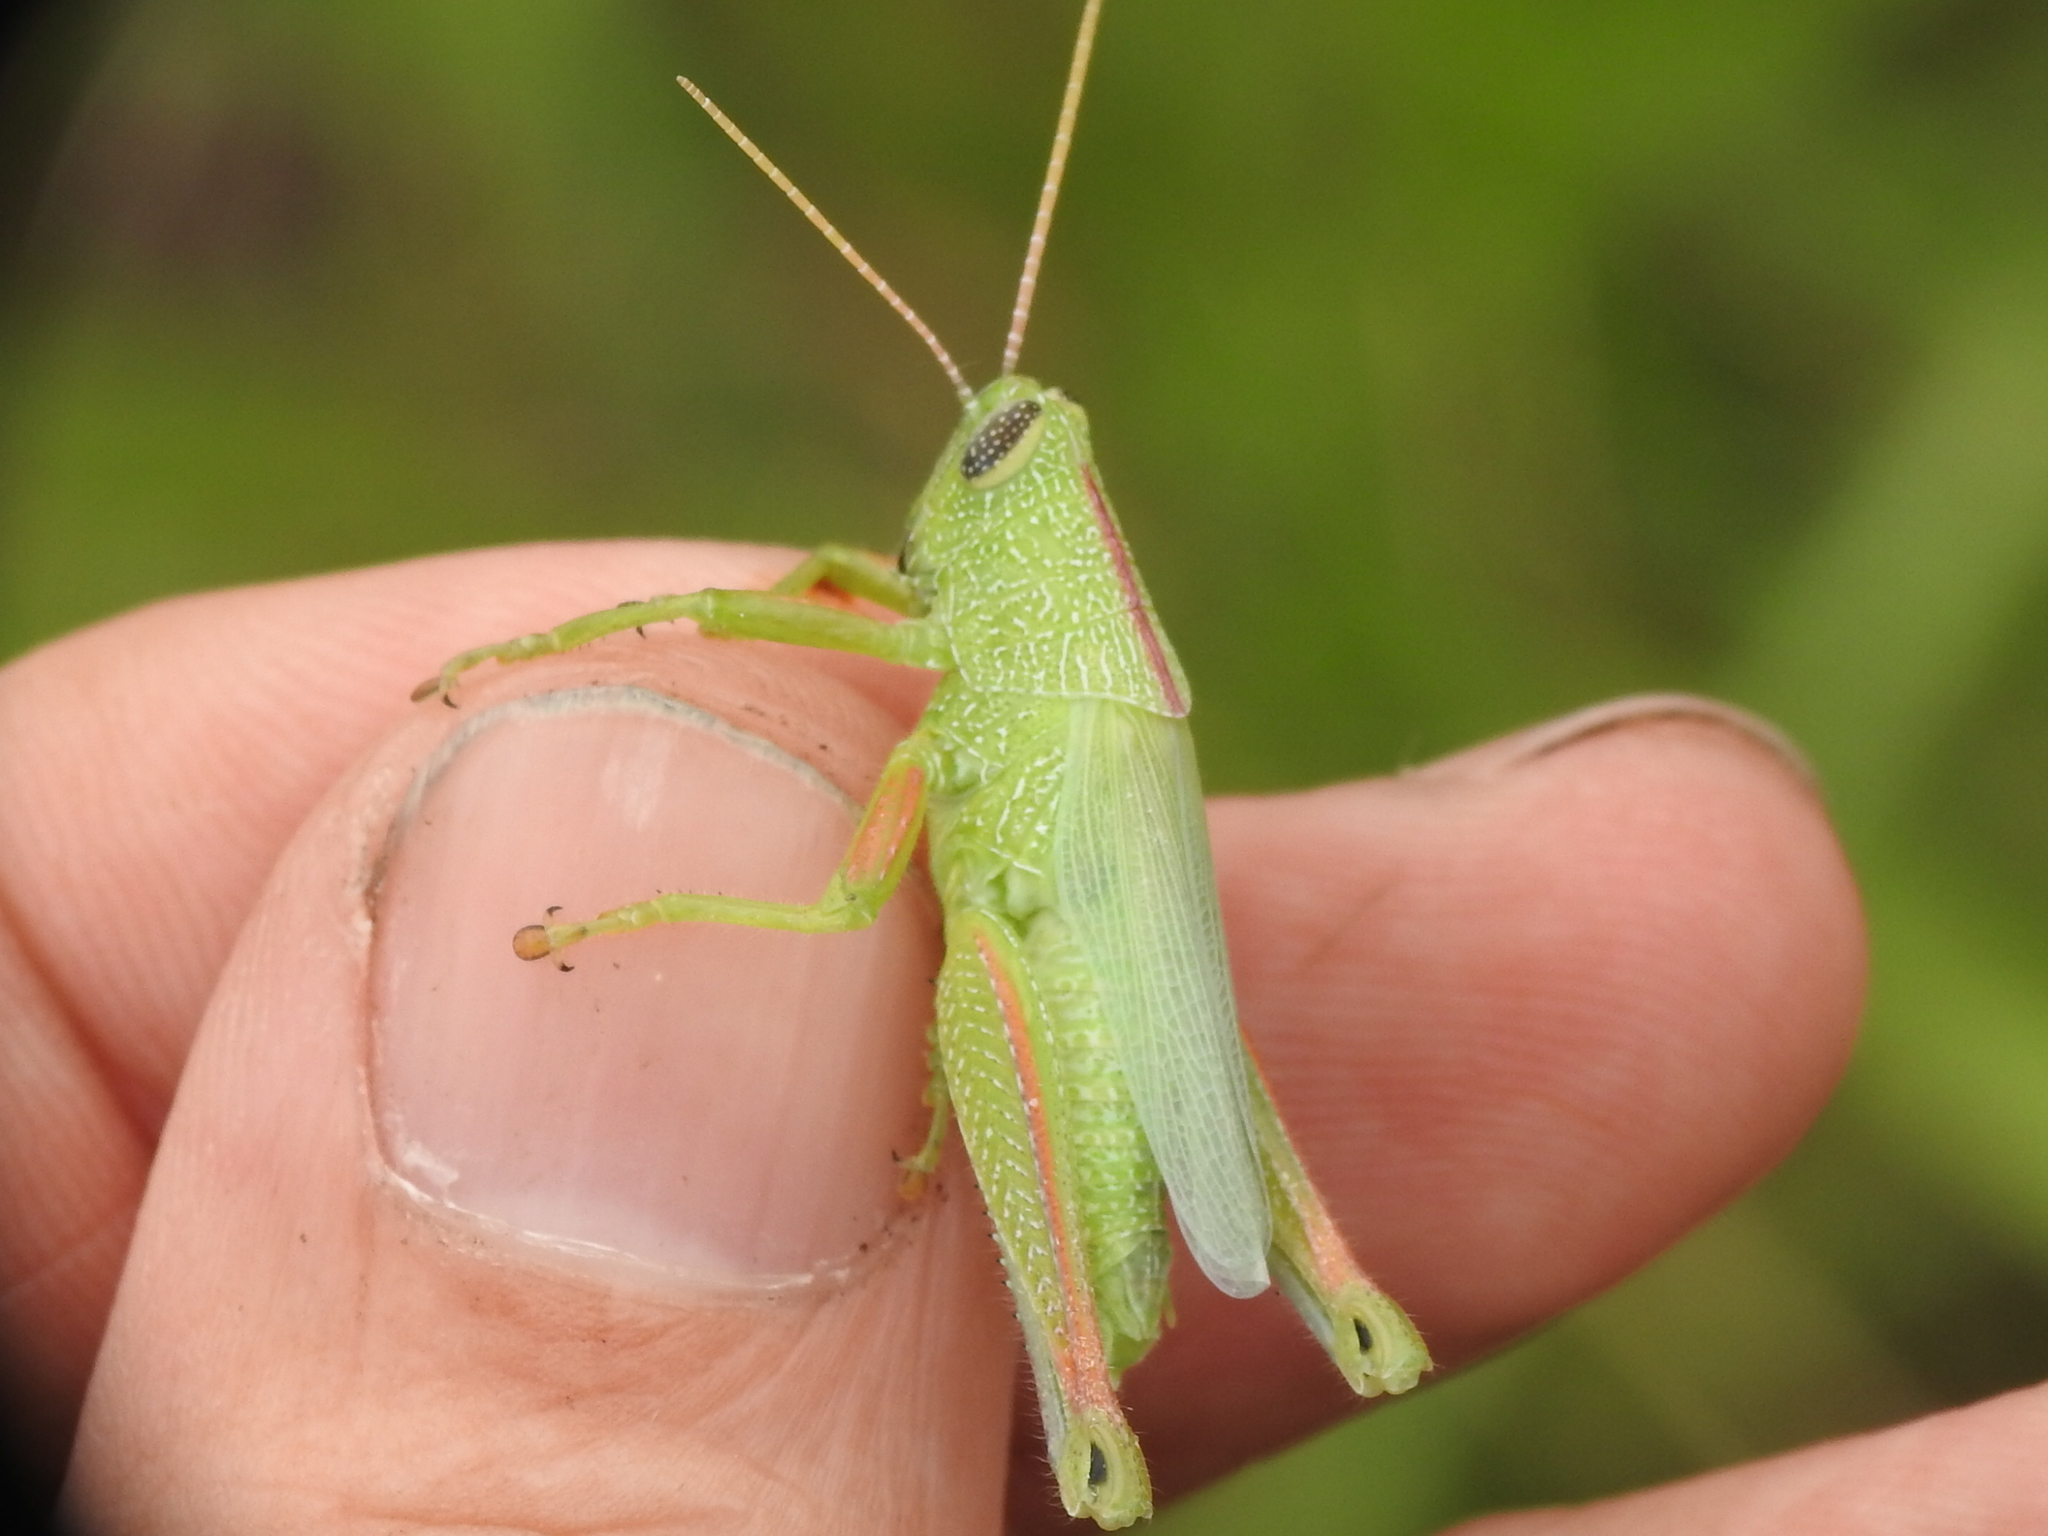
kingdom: Animalia
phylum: Arthropoda
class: Insecta
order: Orthoptera
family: Acrididae
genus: Hesperotettix
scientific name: Hesperotettix speciosus
